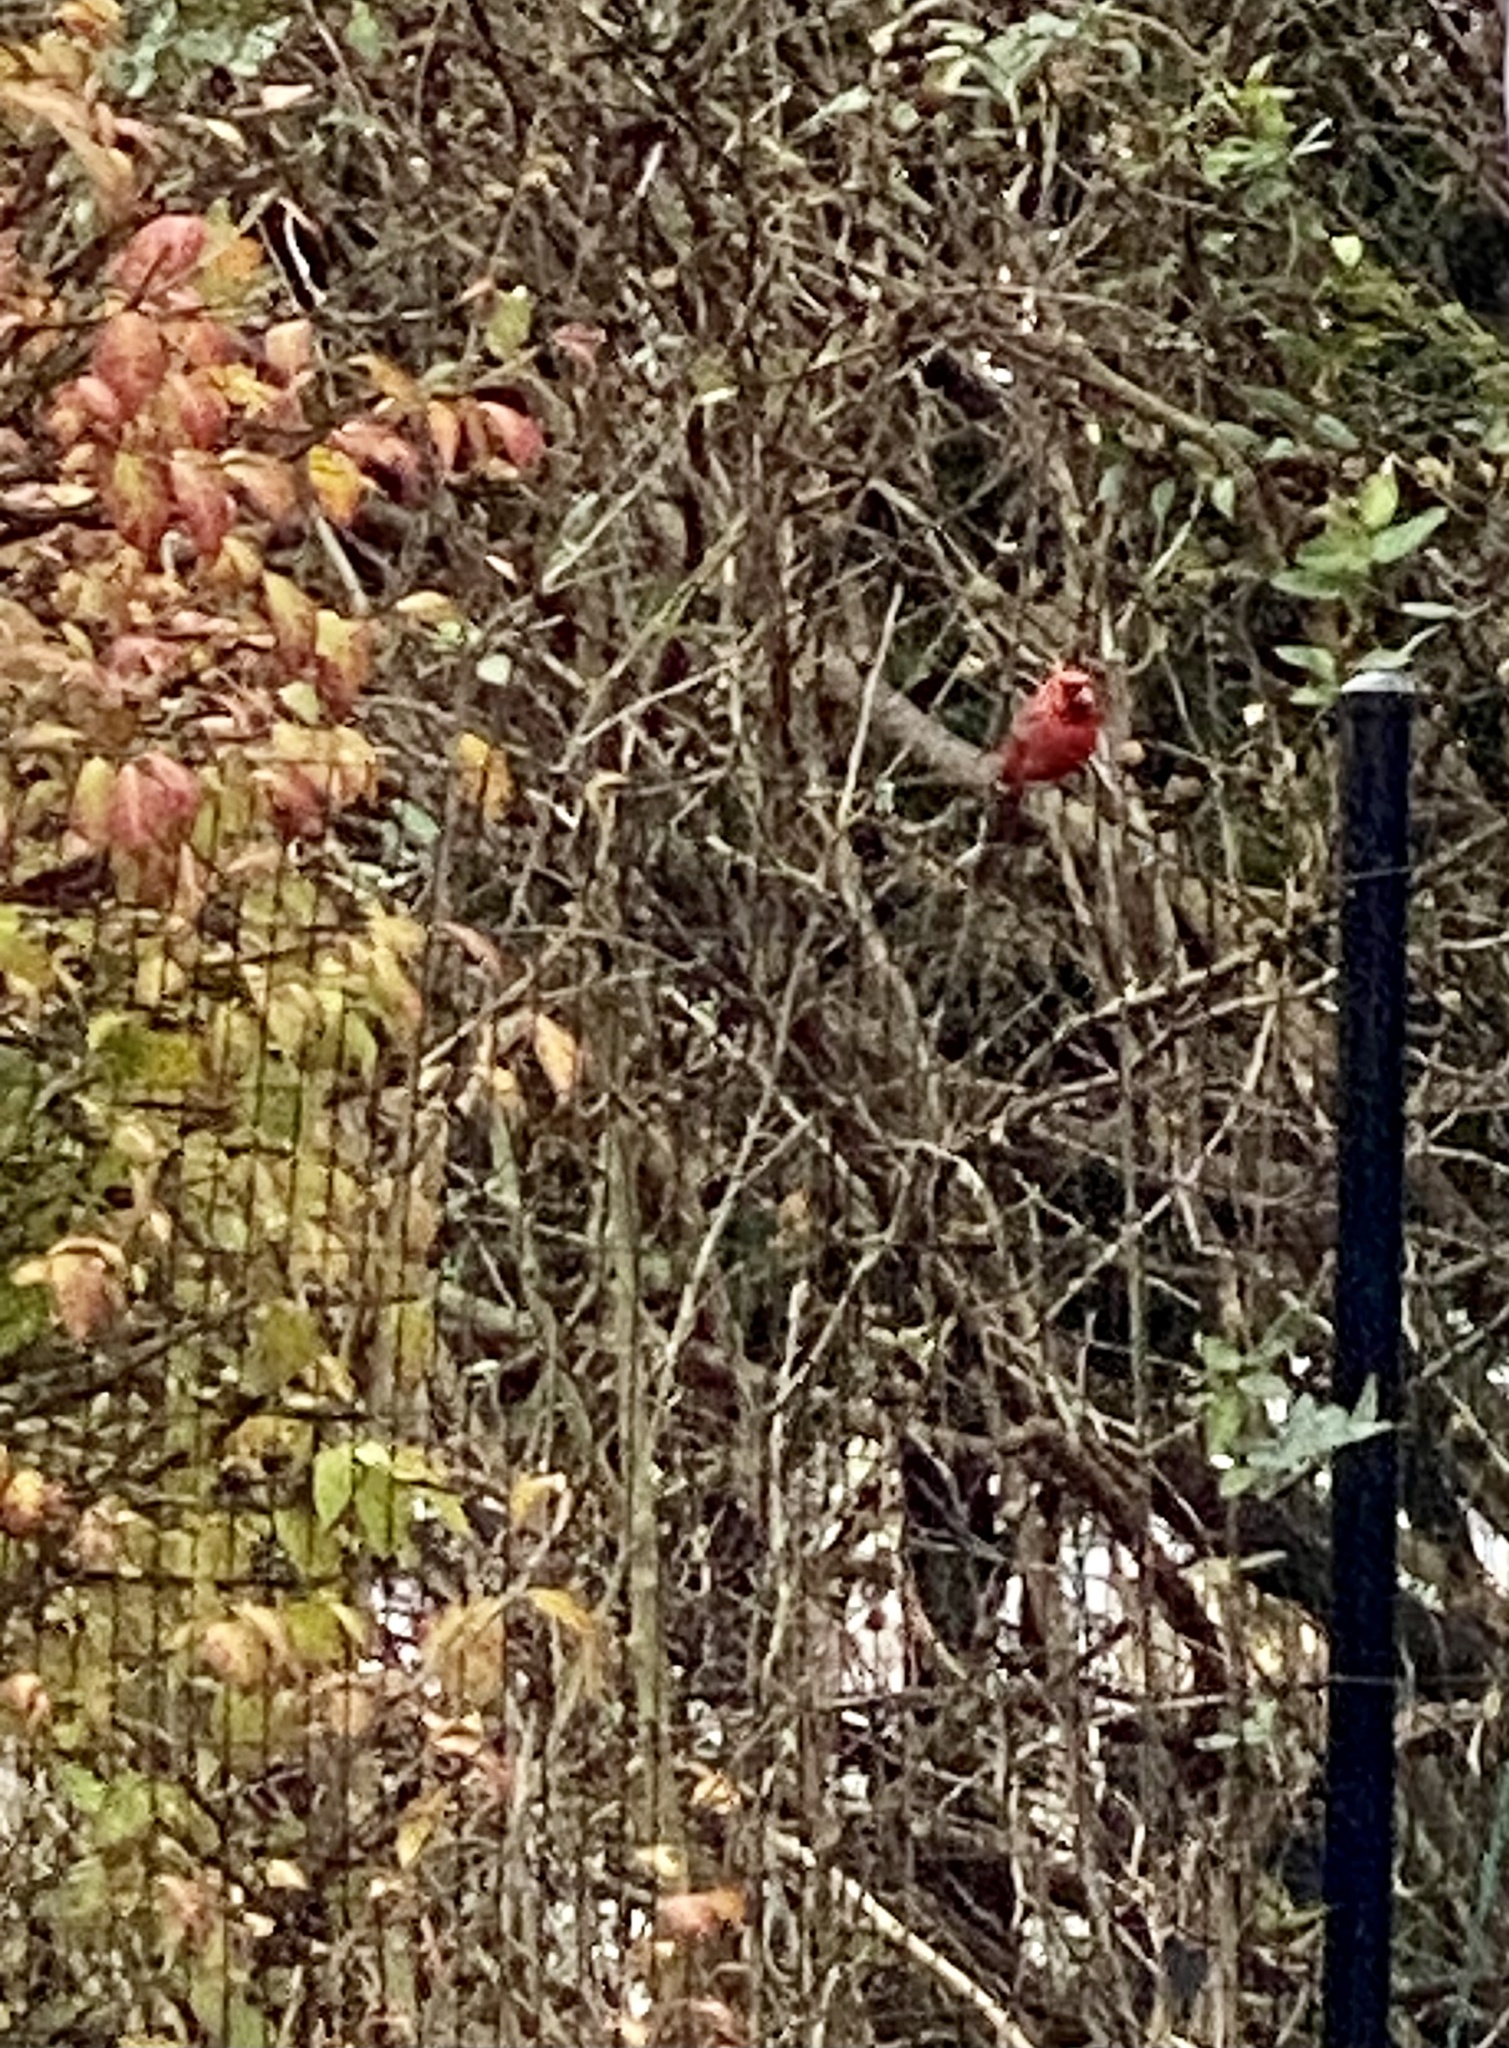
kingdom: Animalia
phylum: Chordata
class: Aves
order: Passeriformes
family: Cardinalidae
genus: Cardinalis
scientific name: Cardinalis cardinalis
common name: Northern cardinal
